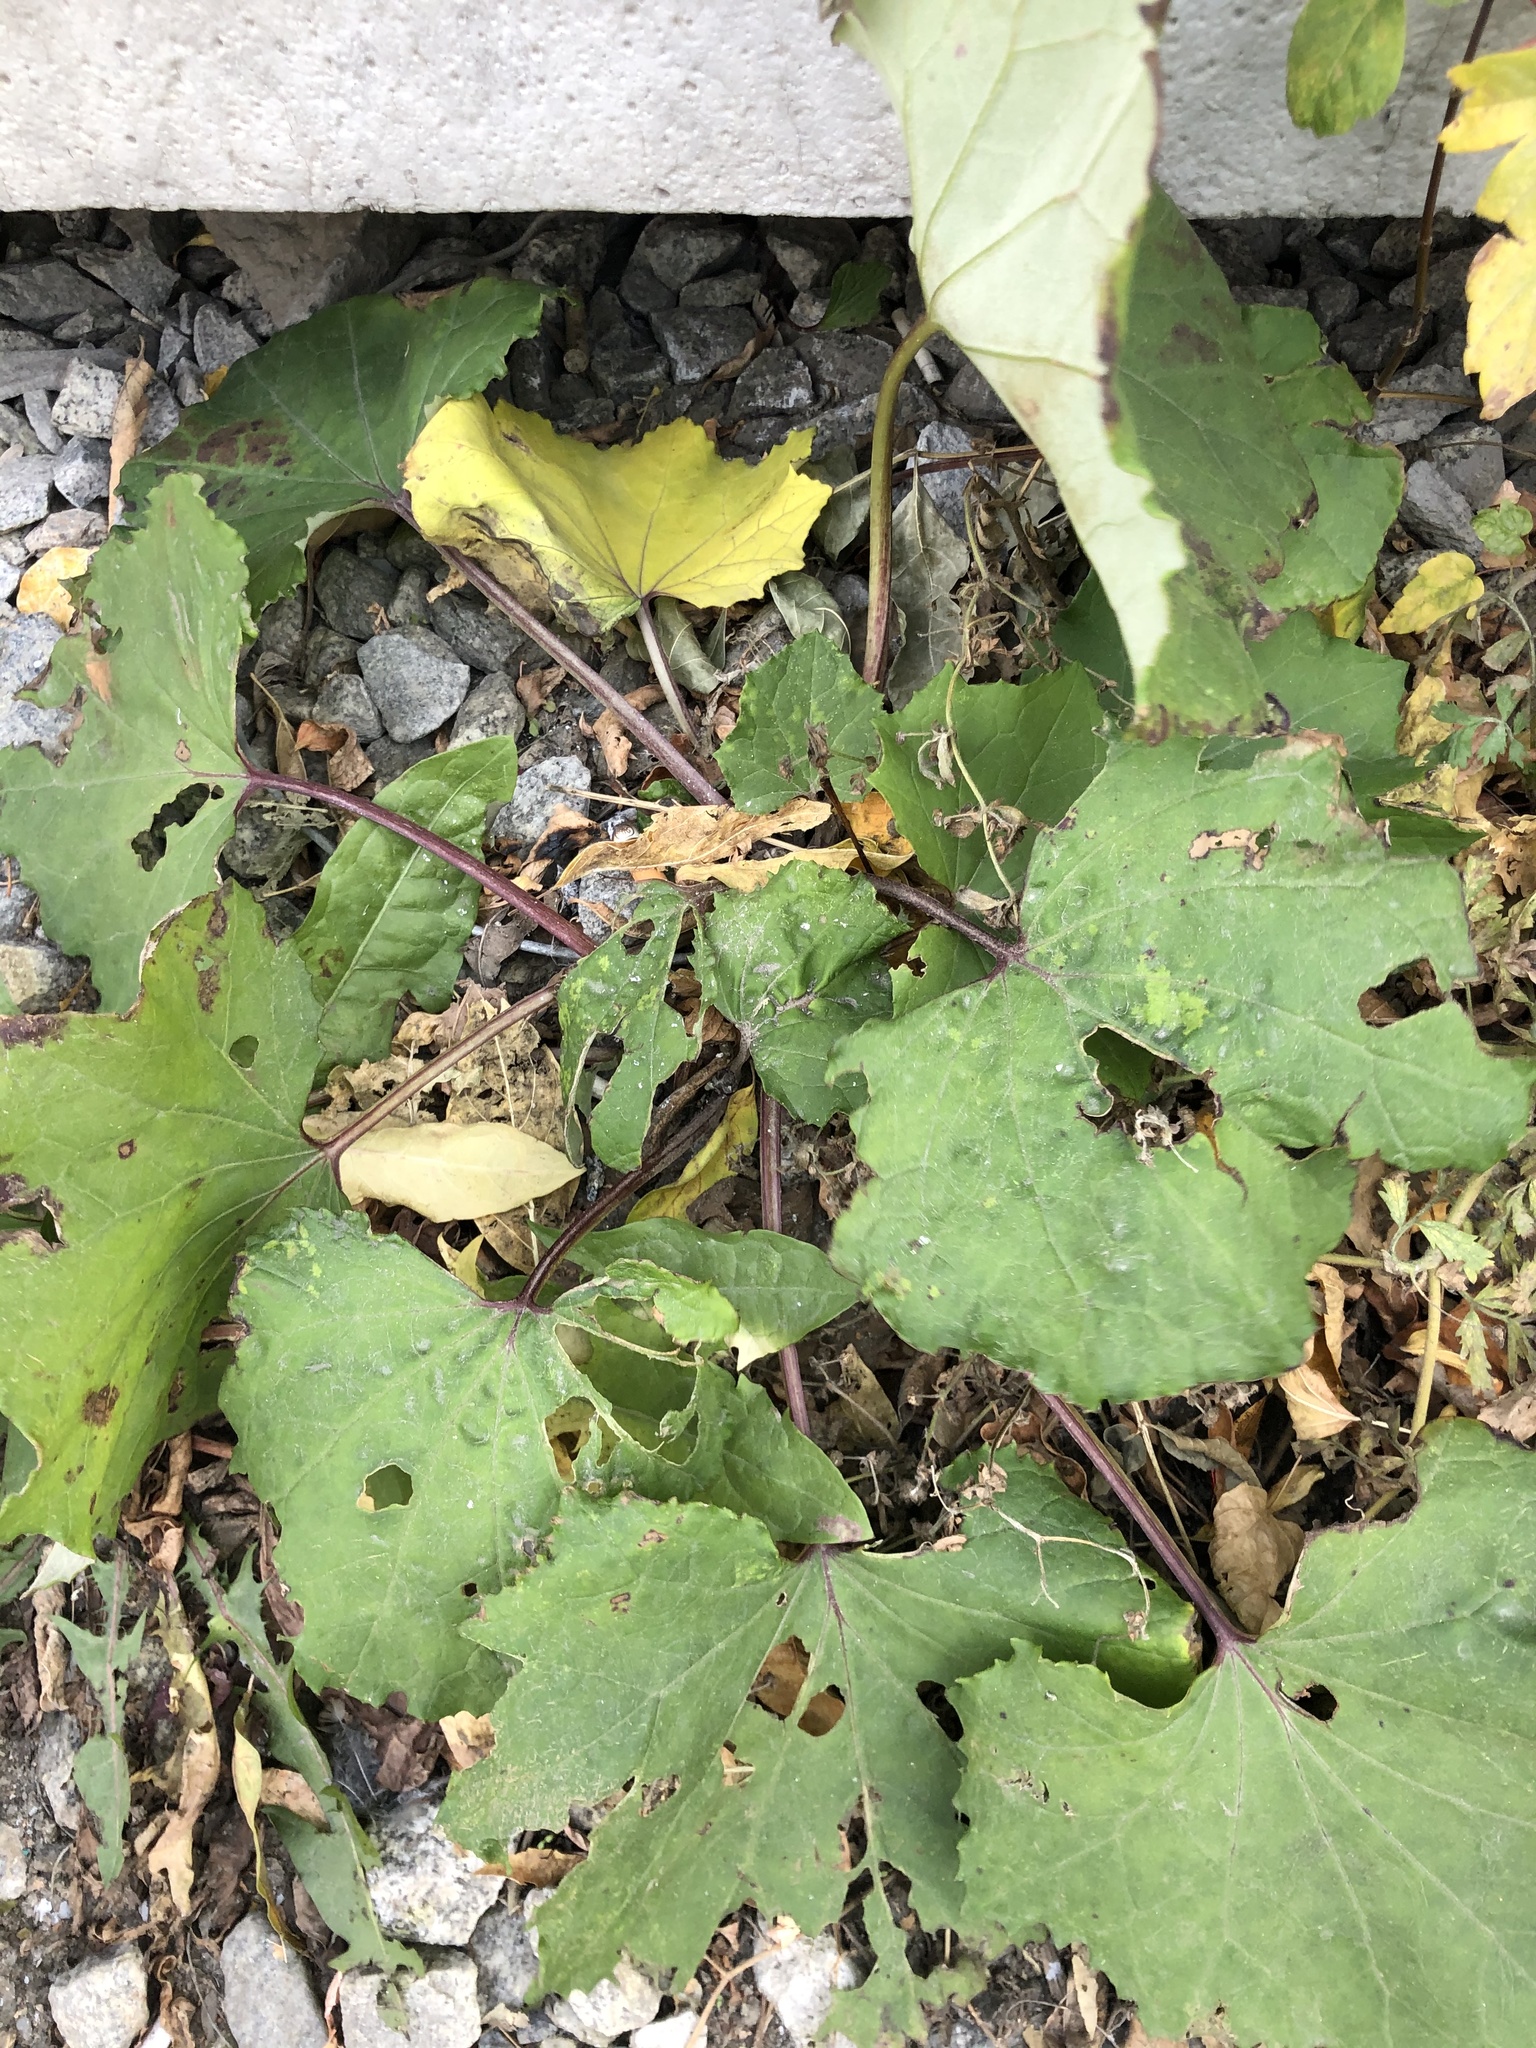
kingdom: Plantae
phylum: Tracheophyta
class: Magnoliopsida
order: Asterales
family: Asteraceae
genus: Tussilago
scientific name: Tussilago farfara
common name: Coltsfoot
